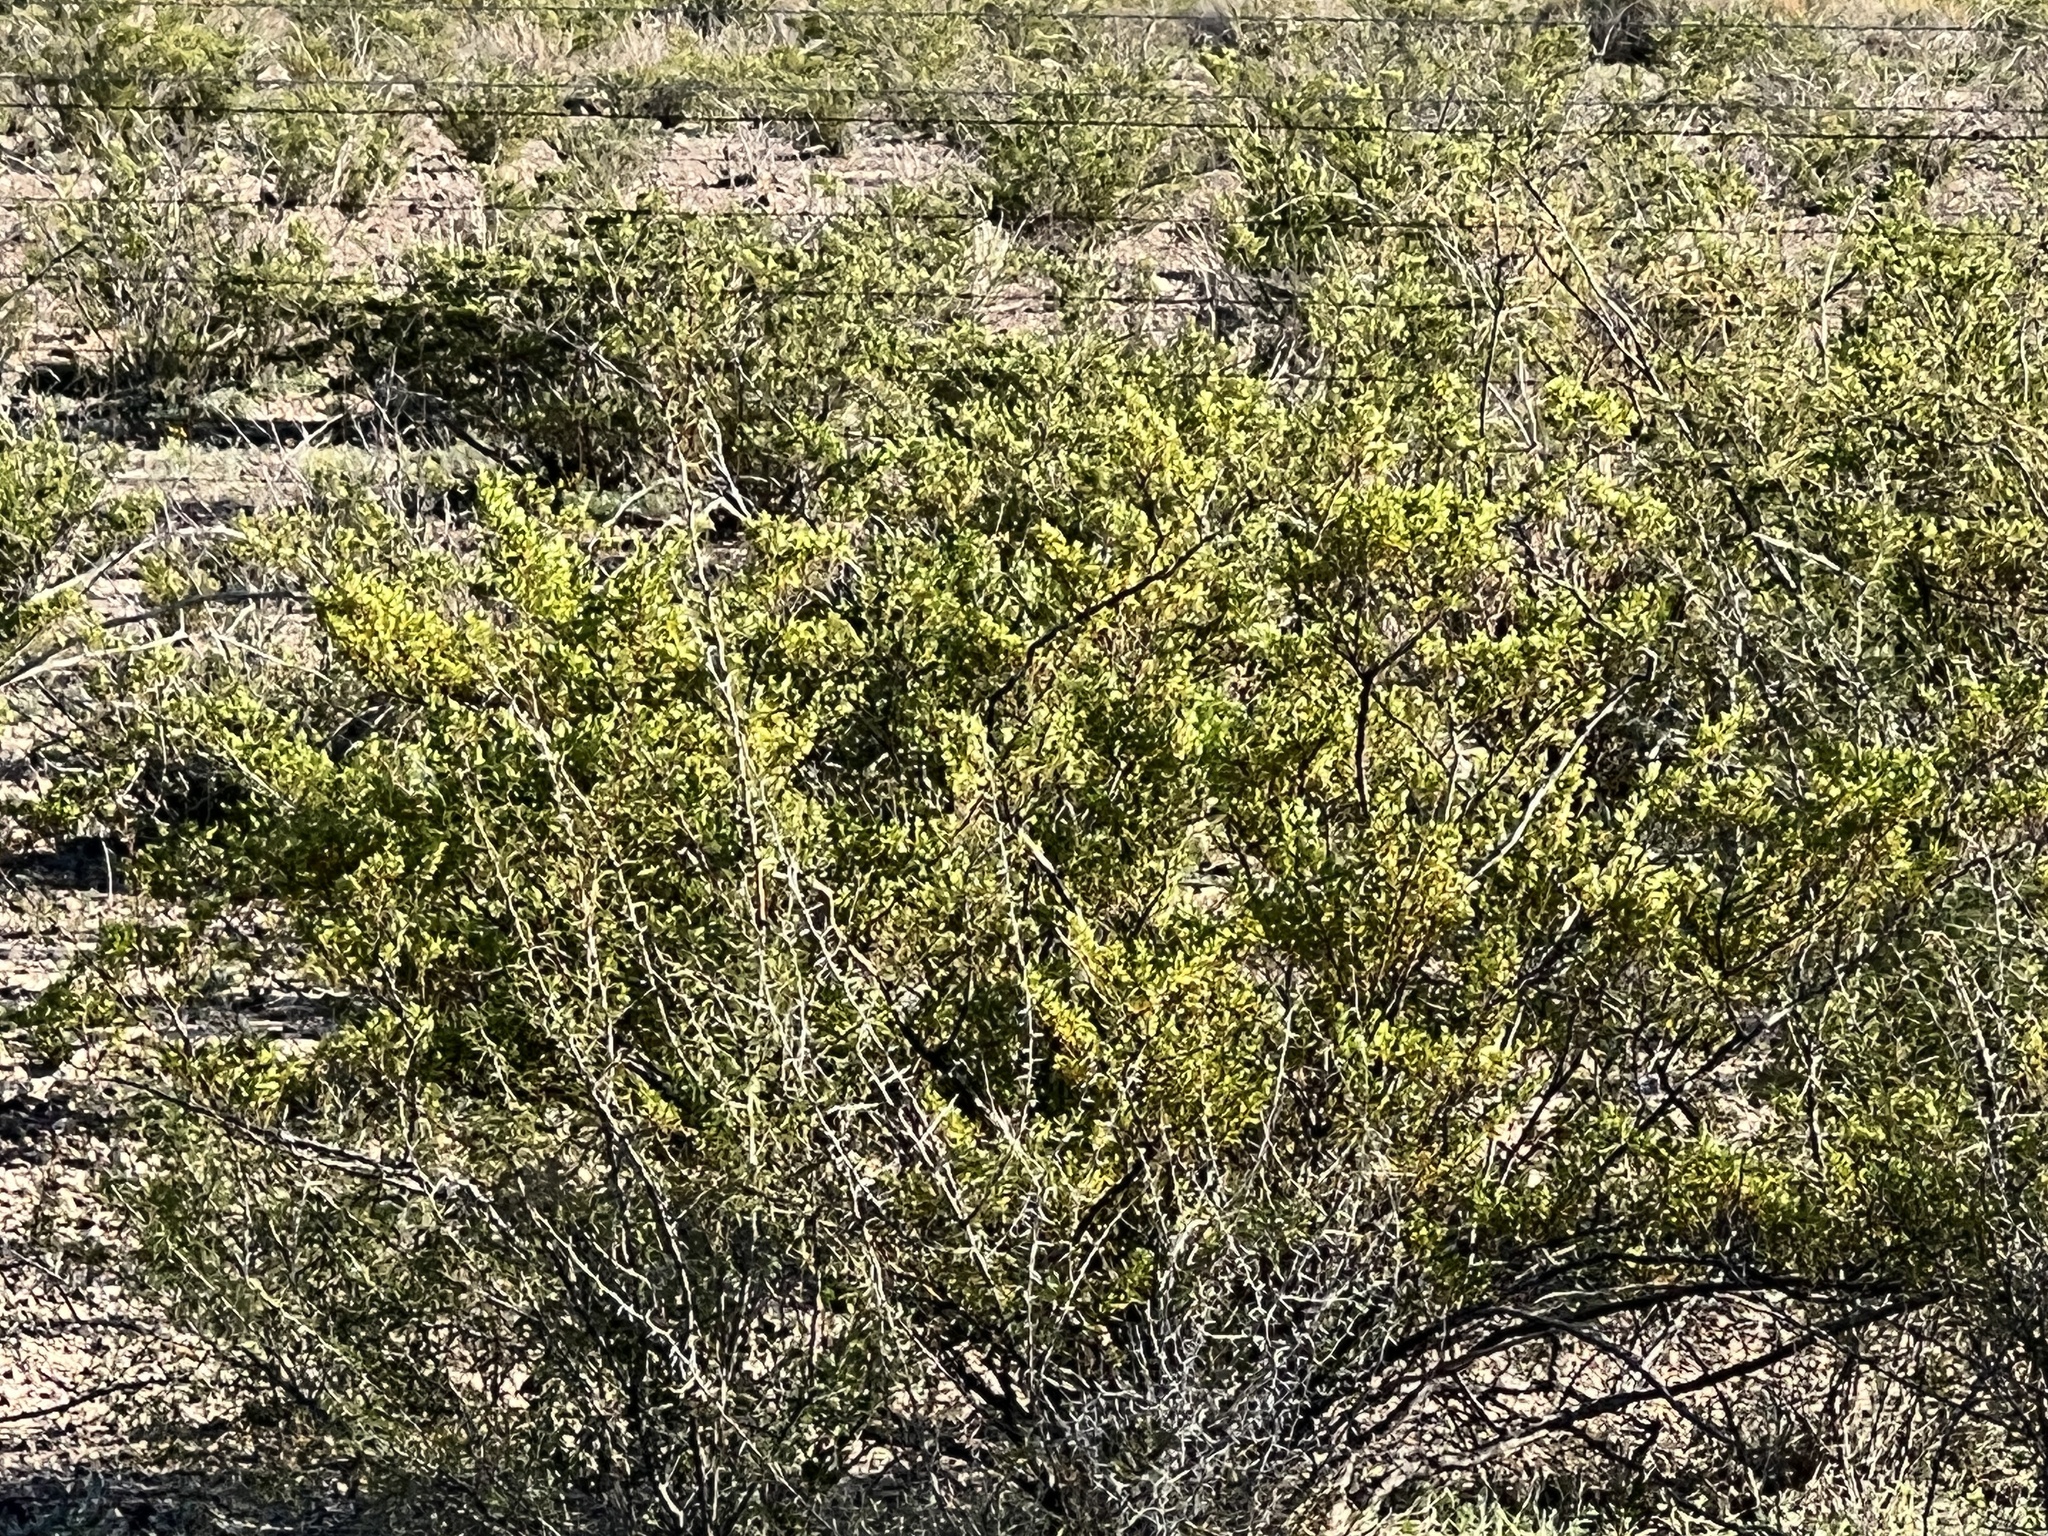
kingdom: Plantae
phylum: Tracheophyta
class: Magnoliopsida
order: Zygophyllales
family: Zygophyllaceae
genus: Larrea
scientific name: Larrea tridentata
